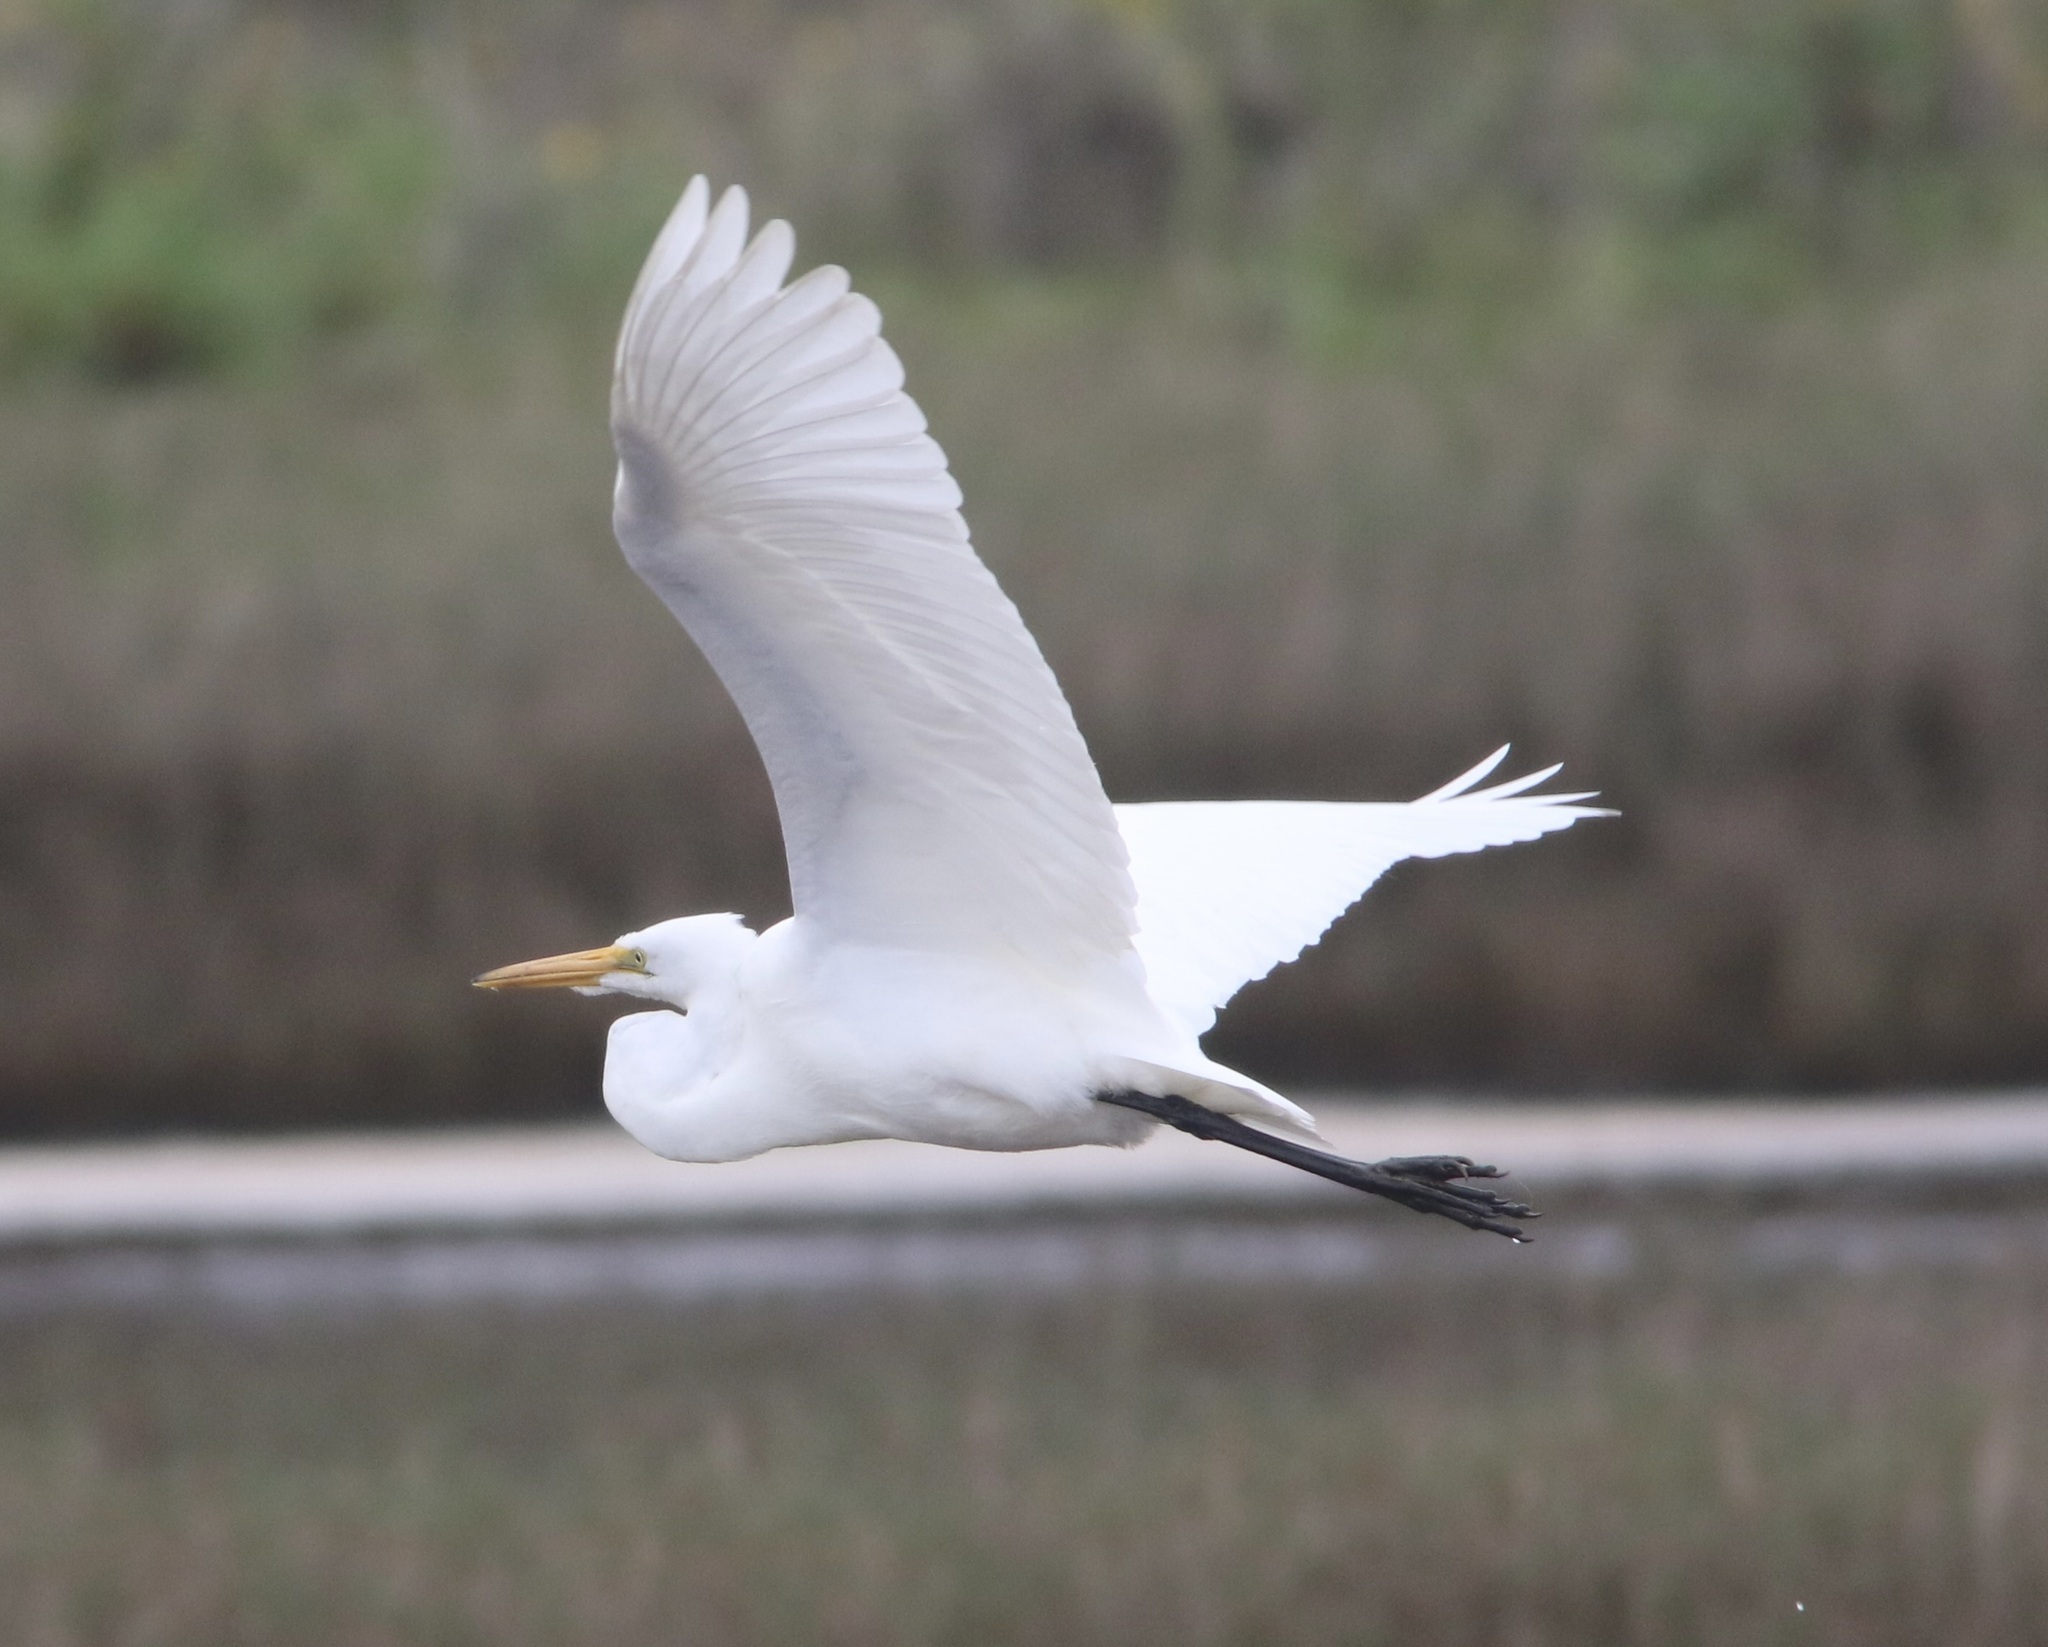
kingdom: Animalia
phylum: Chordata
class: Aves
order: Pelecaniformes
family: Ardeidae
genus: Ardea
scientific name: Ardea alba
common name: Great egret
